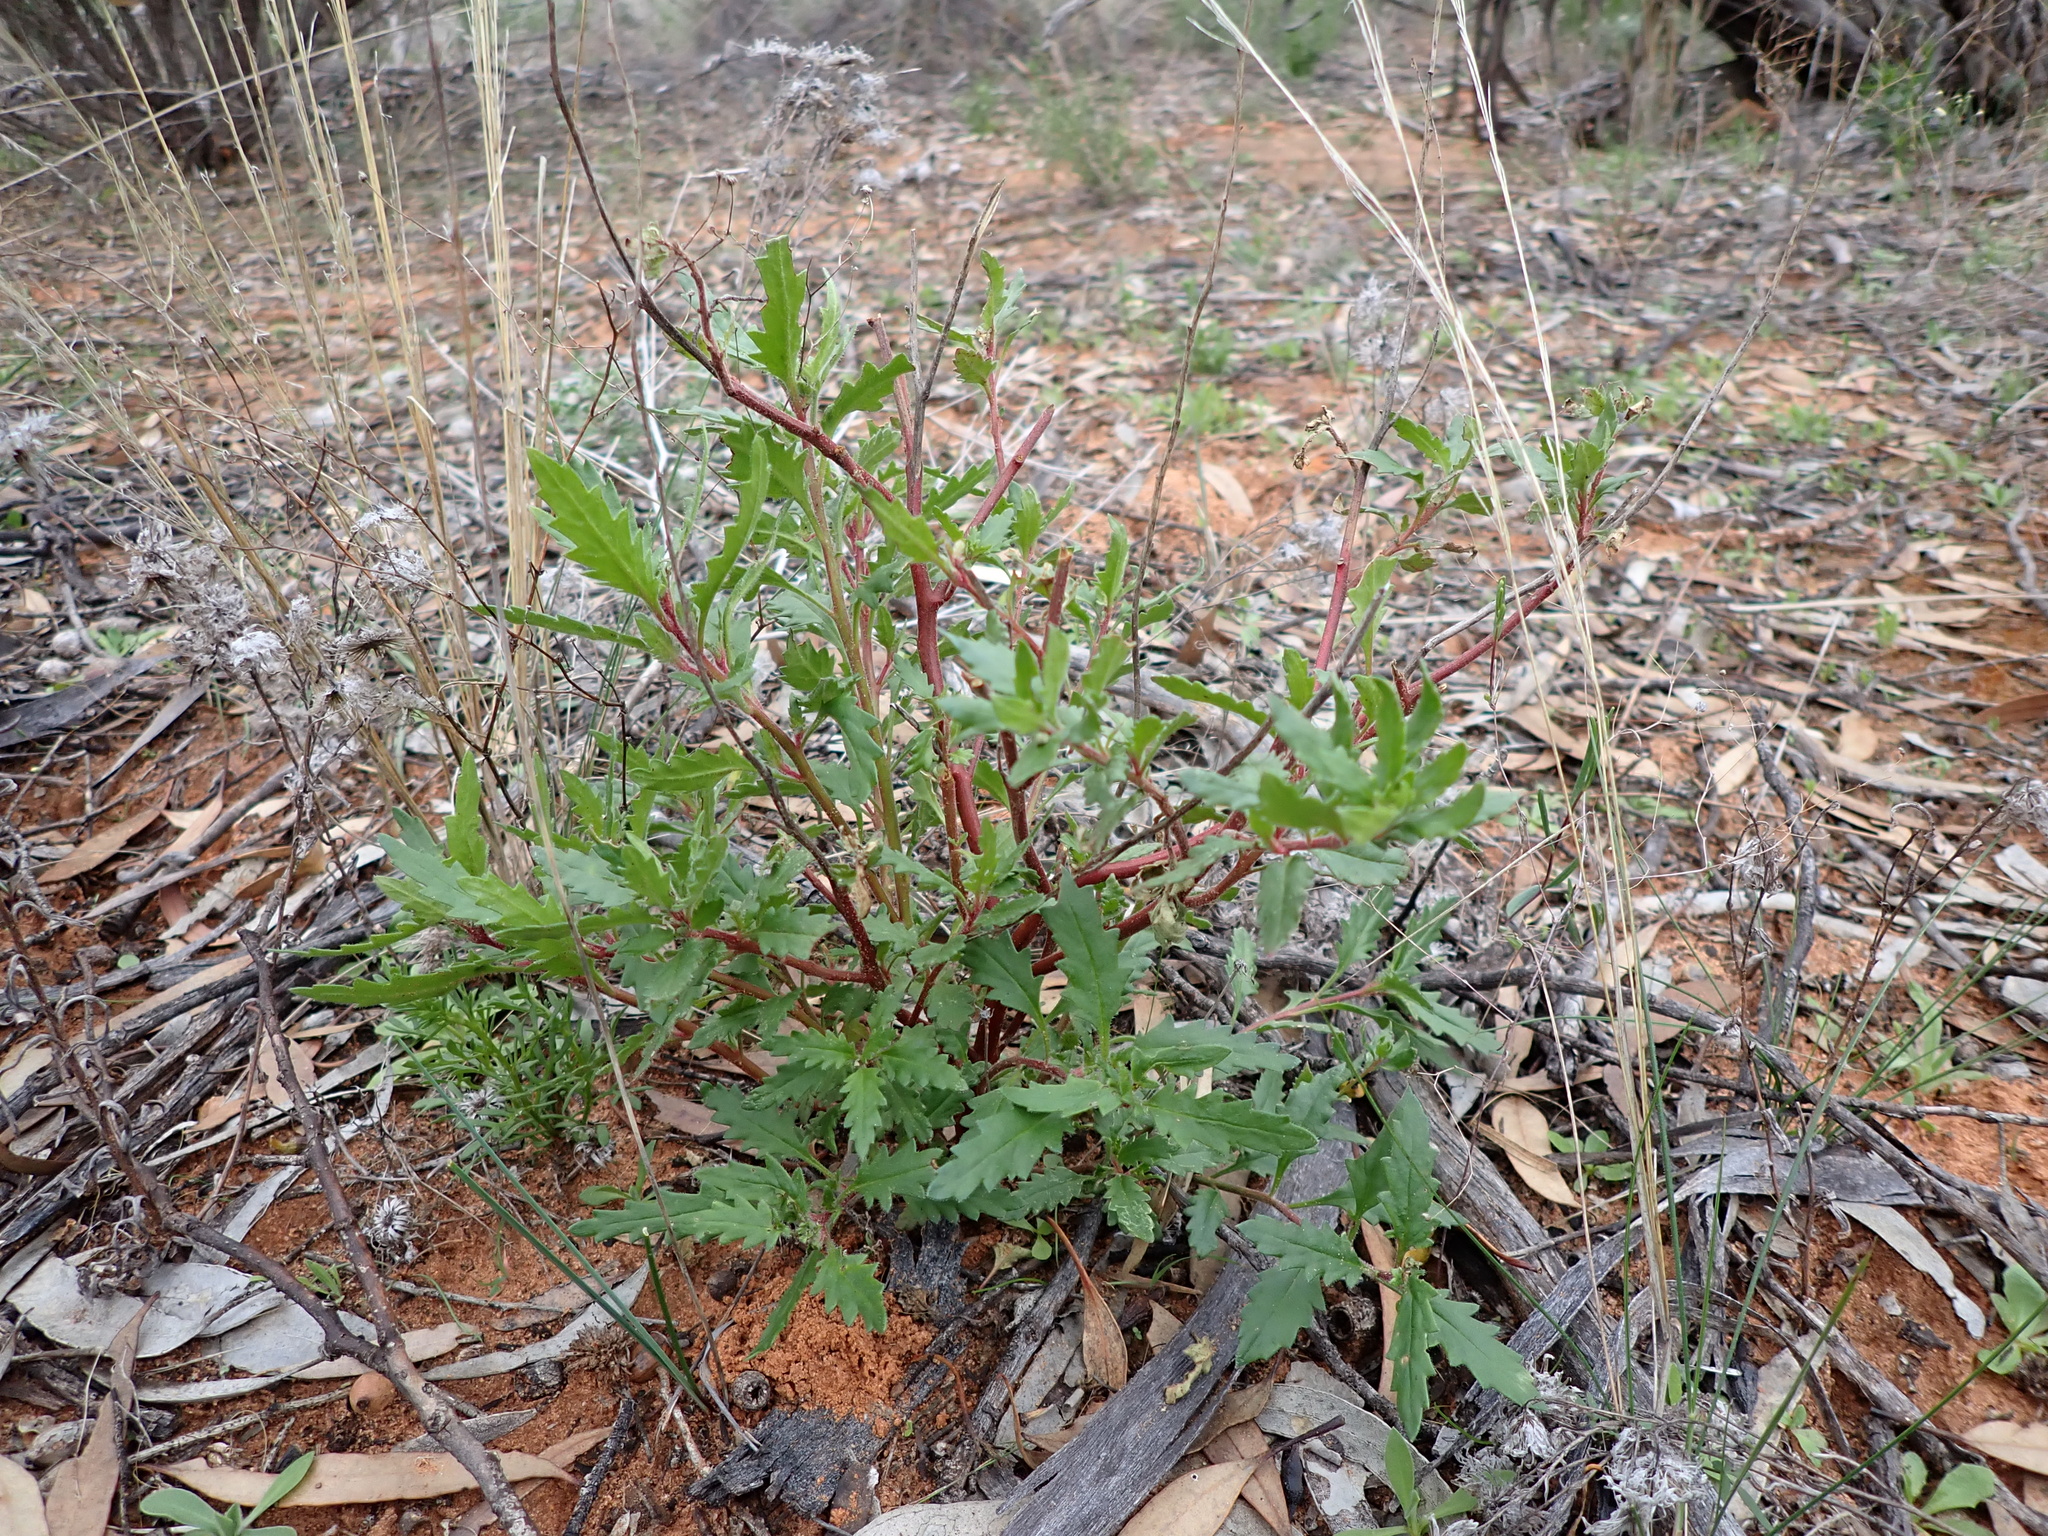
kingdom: Plantae
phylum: Tracheophyta
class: Magnoliopsida
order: Saxifragales
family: Haloragaceae
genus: Haloragis
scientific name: Haloragis acutangula
